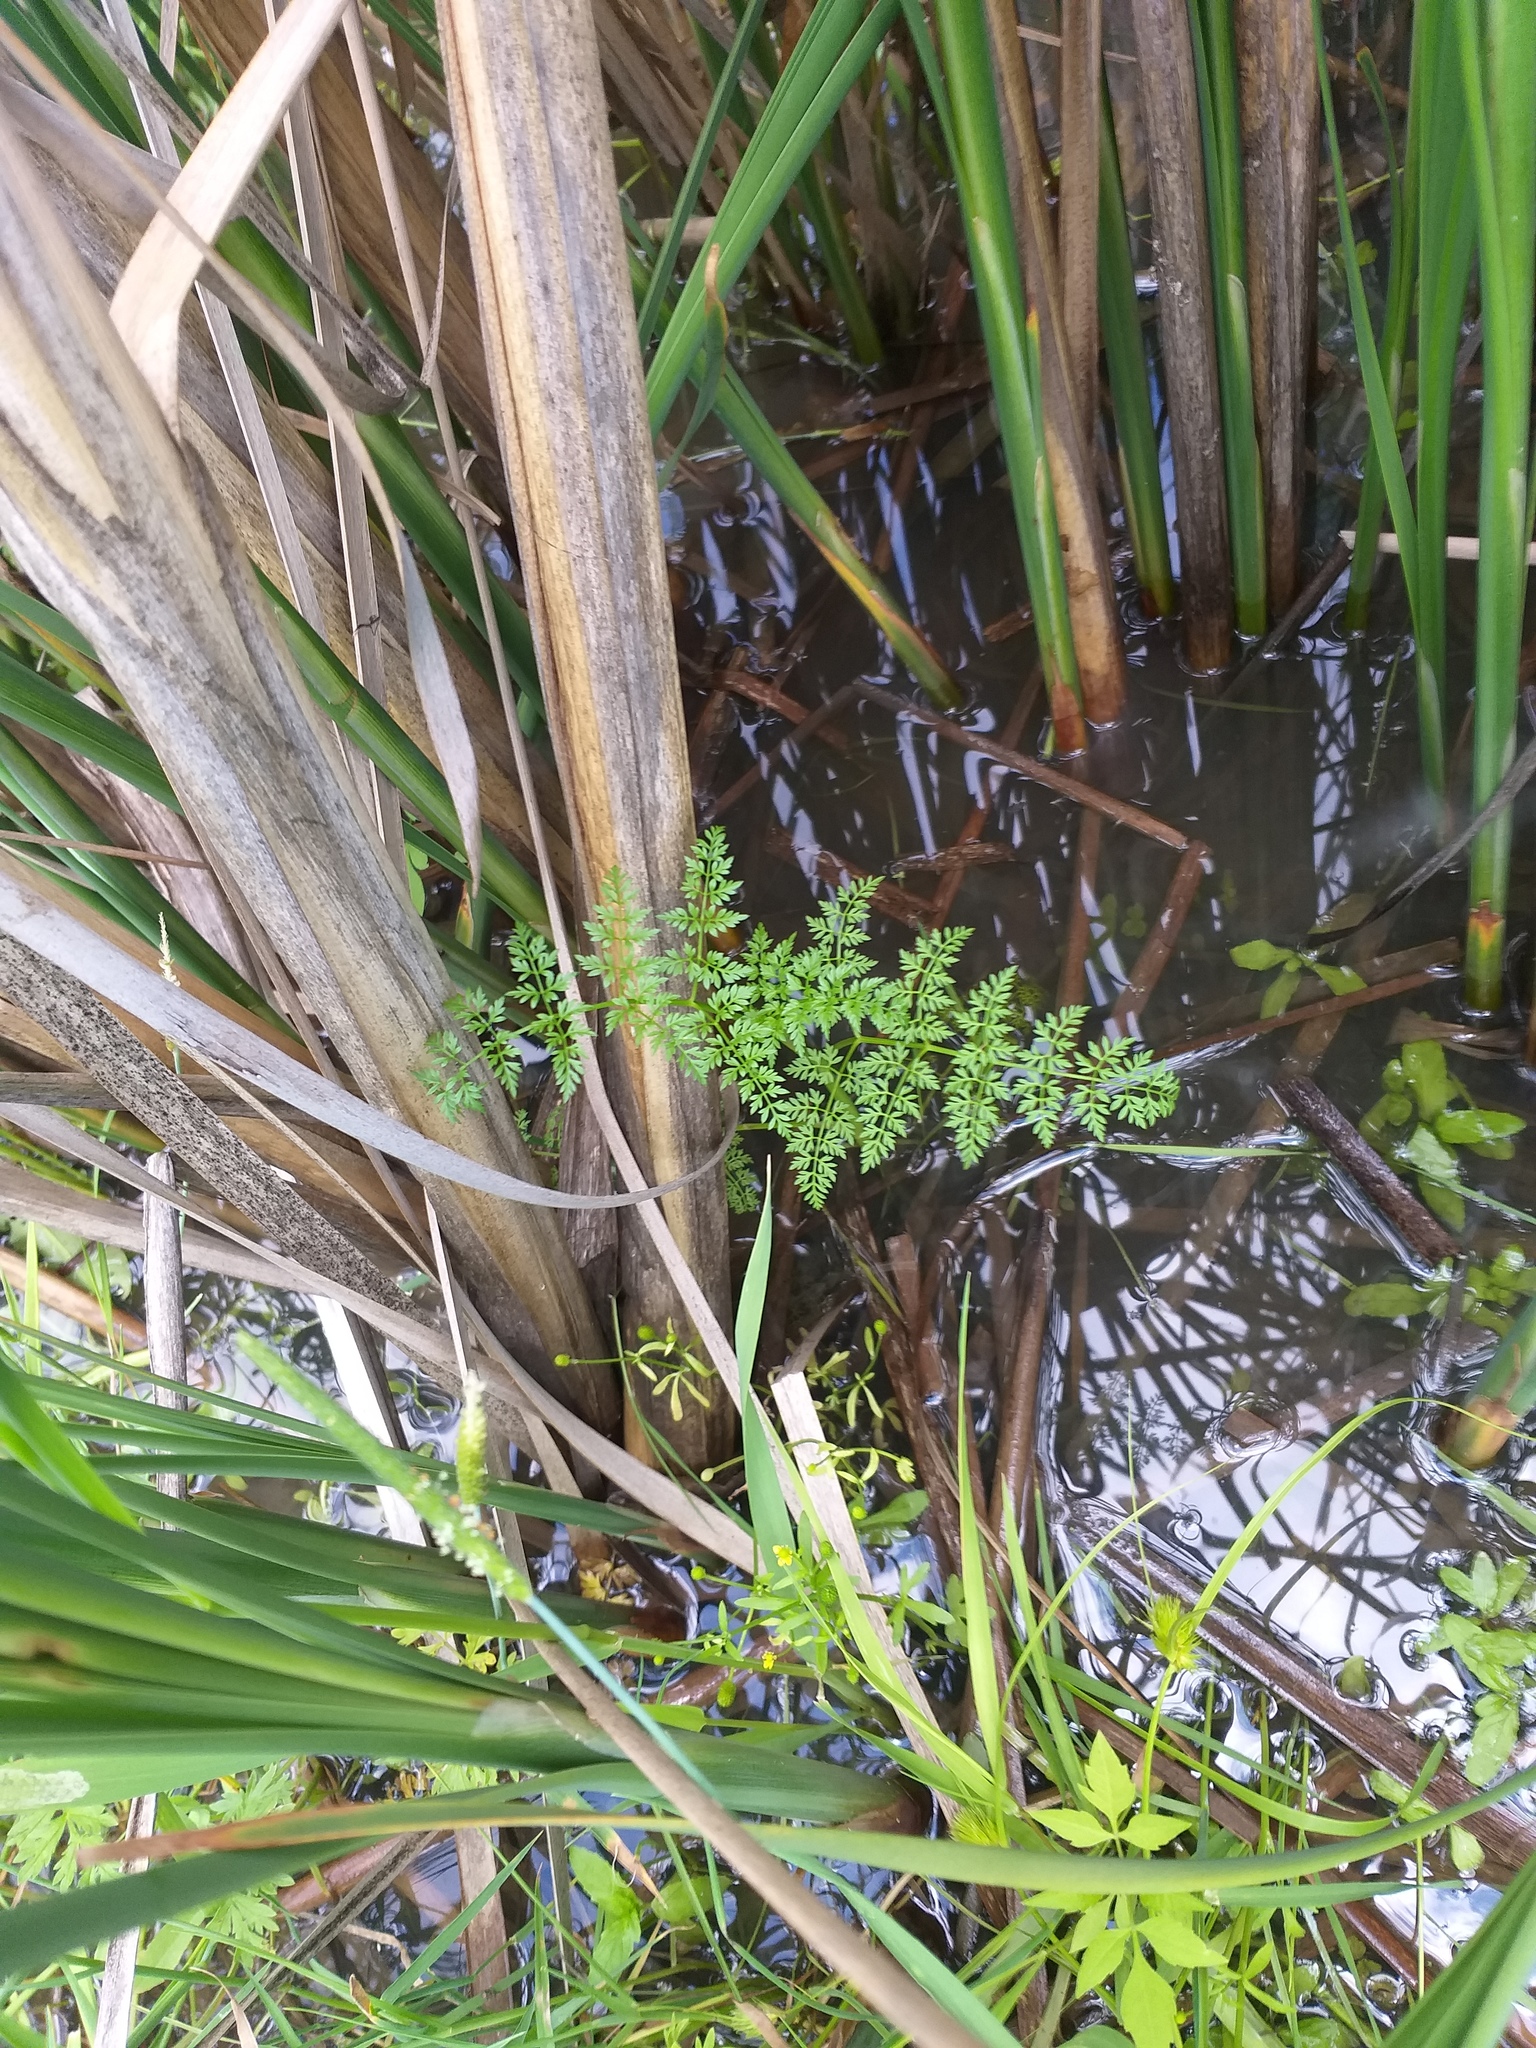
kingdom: Plantae
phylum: Tracheophyta
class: Magnoliopsida
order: Apiales
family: Apiaceae
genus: Oenanthe
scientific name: Oenanthe aquatica
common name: Fine-leaved water-dropwort
